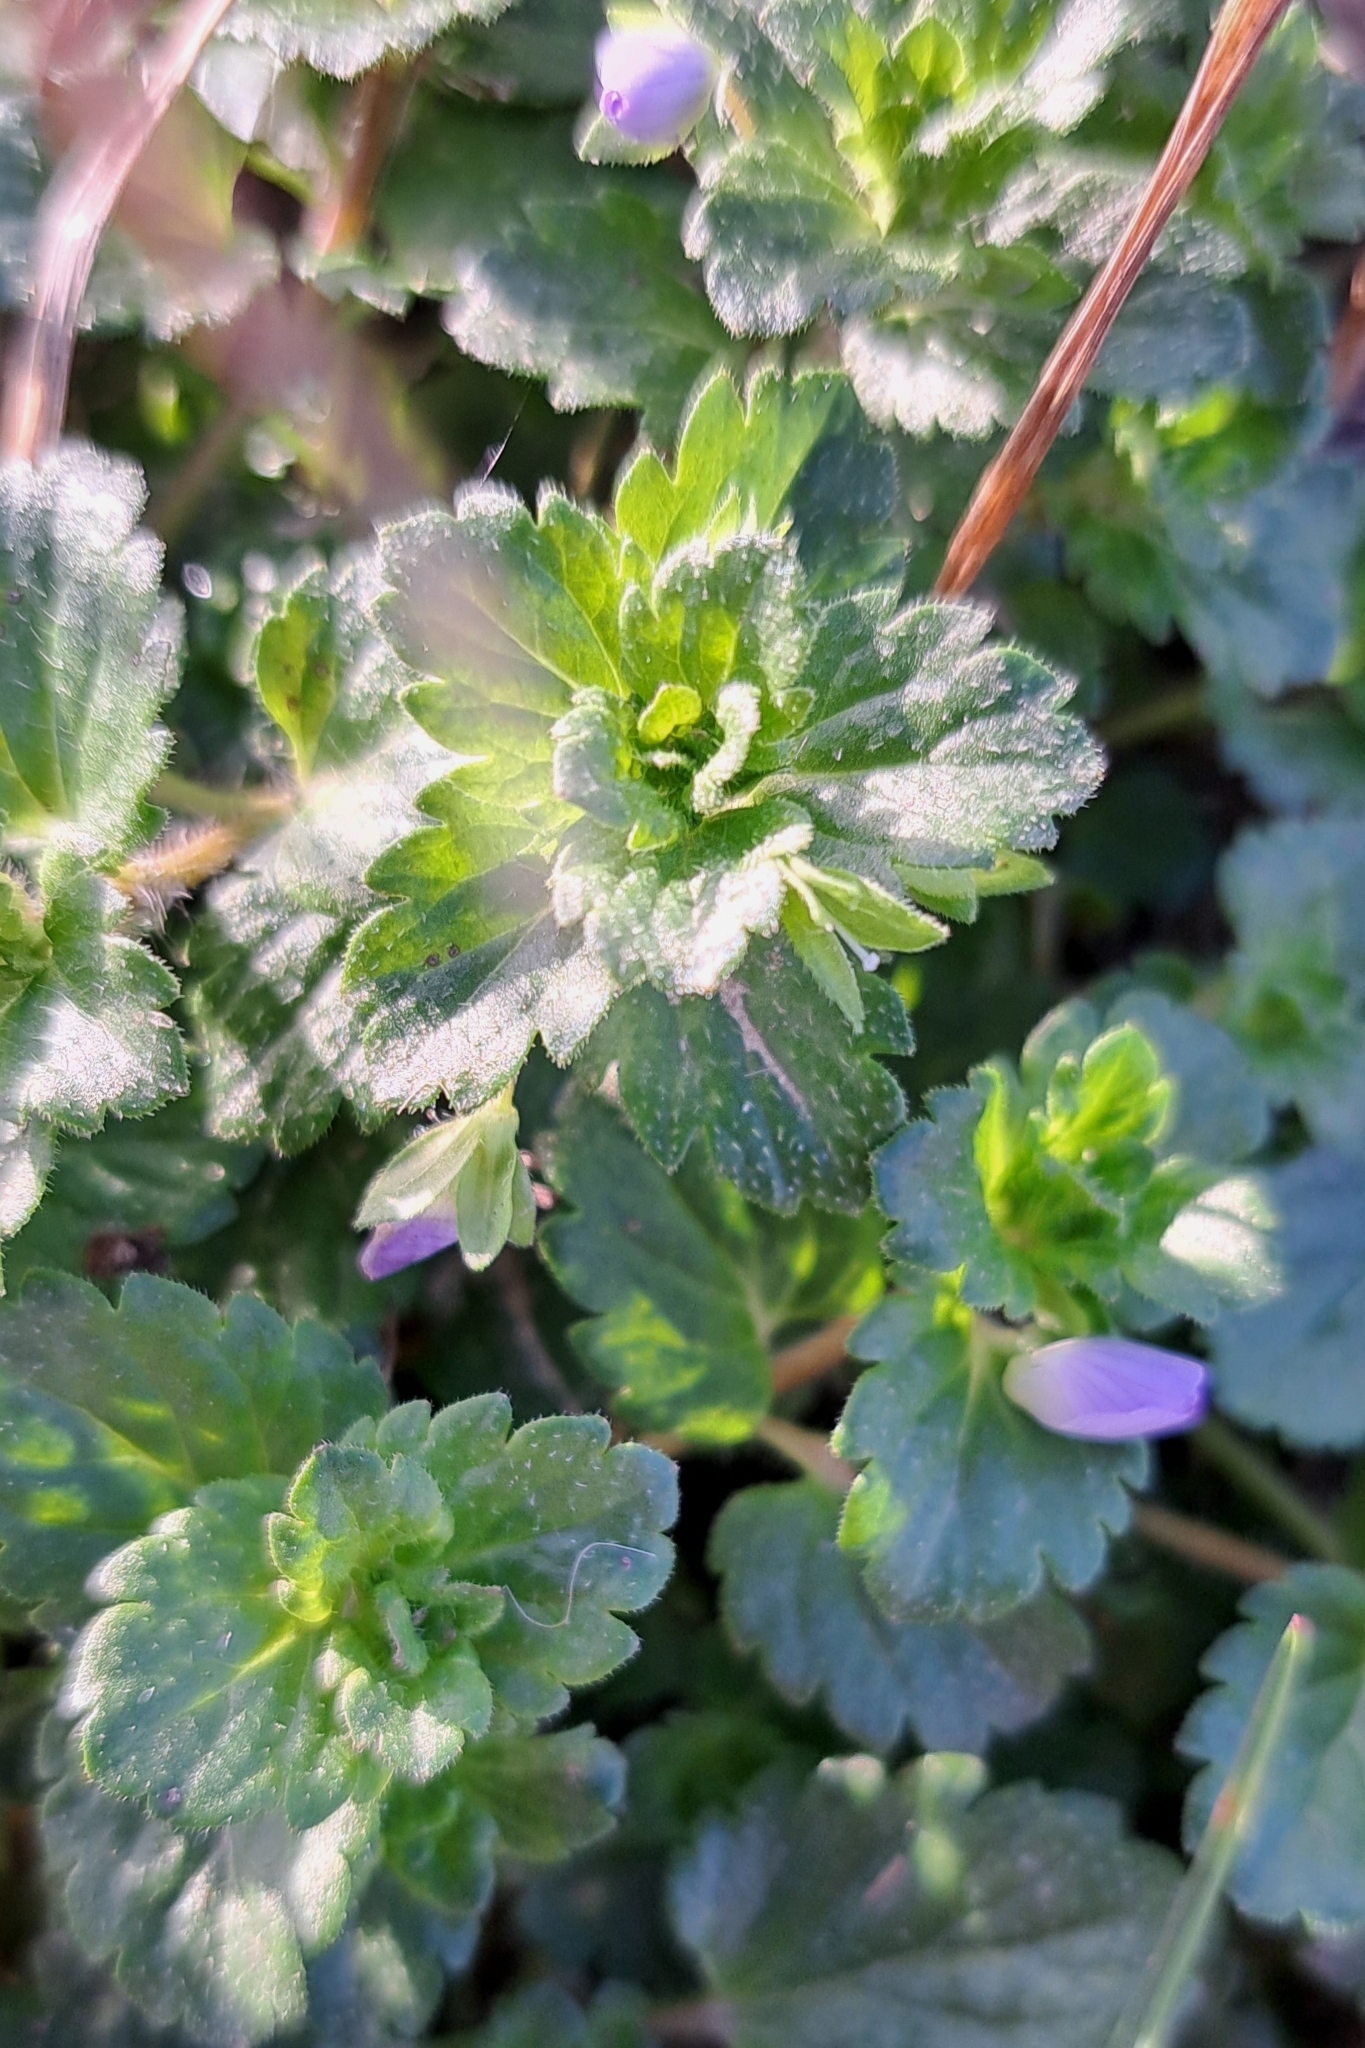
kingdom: Plantae
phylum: Tracheophyta
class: Magnoliopsida
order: Lamiales
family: Plantaginaceae
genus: Veronica
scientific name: Veronica persica
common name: Common field-speedwell
